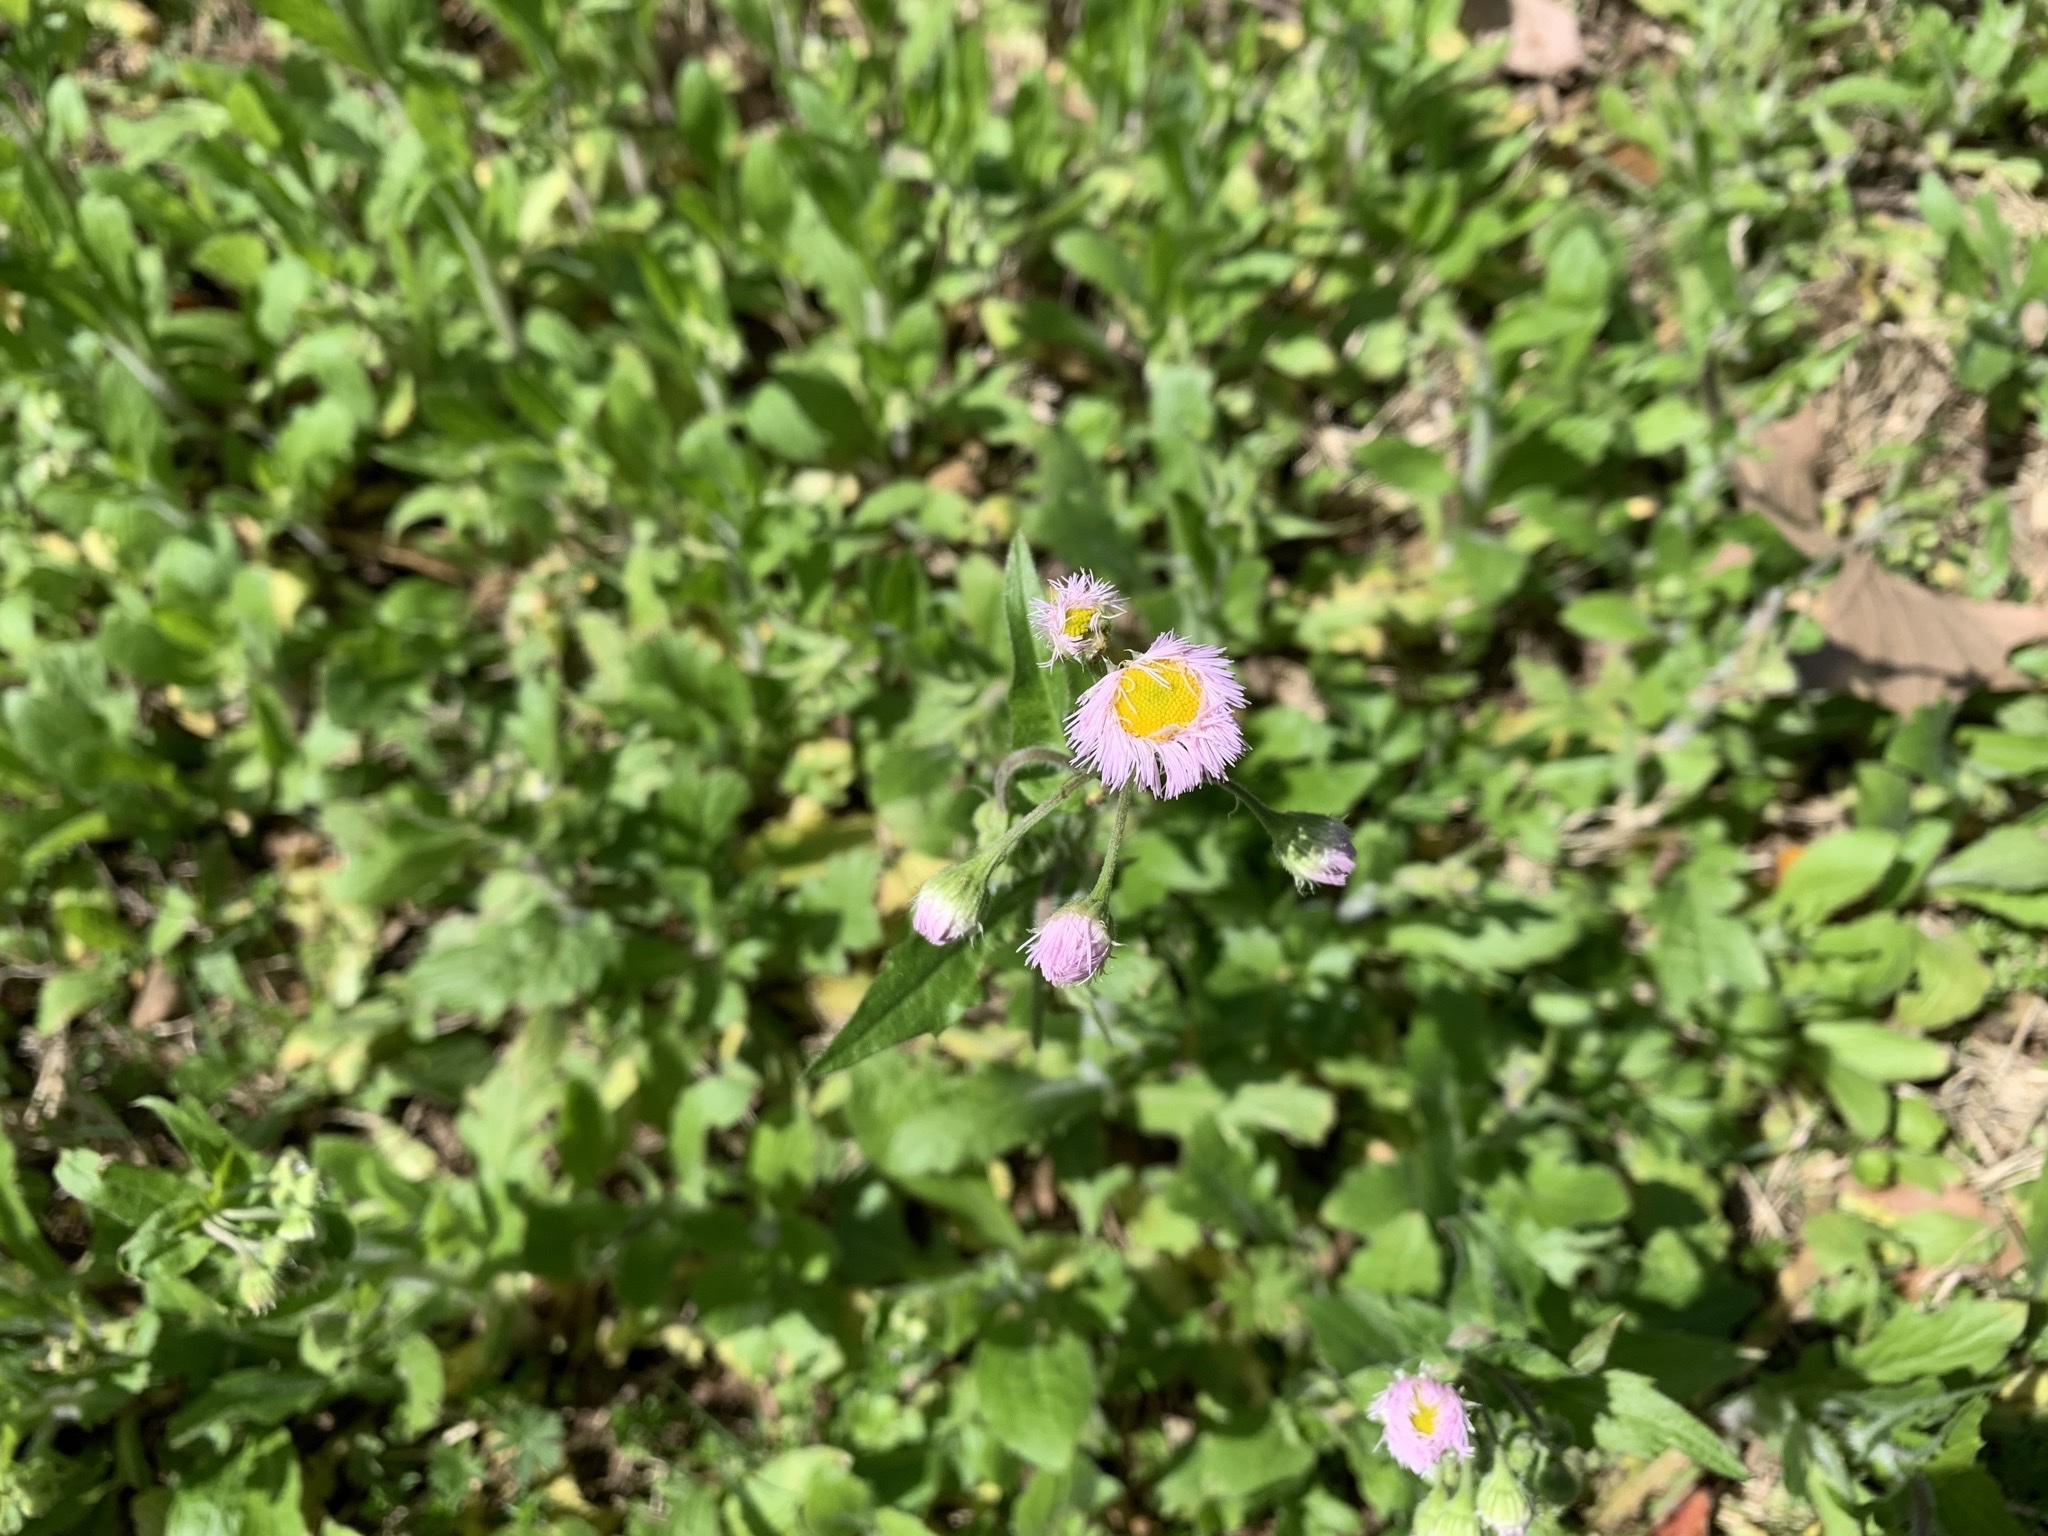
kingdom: Plantae
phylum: Tracheophyta
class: Magnoliopsida
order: Asterales
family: Asteraceae
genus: Erigeron
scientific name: Erigeron philadelphicus
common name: Robin's-plantain
